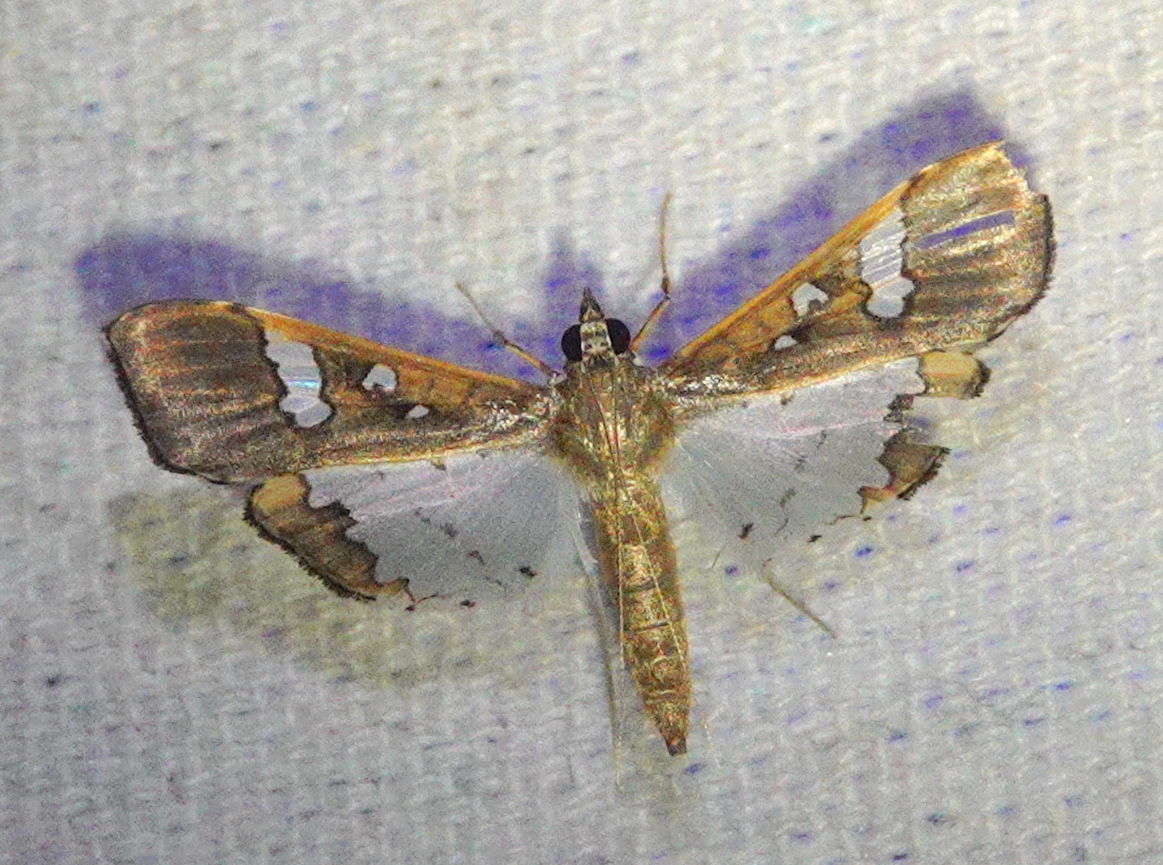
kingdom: Animalia
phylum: Arthropoda
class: Insecta
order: Lepidoptera
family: Crambidae
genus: Maruca
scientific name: Maruca vitrata
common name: Maruca pod borer
